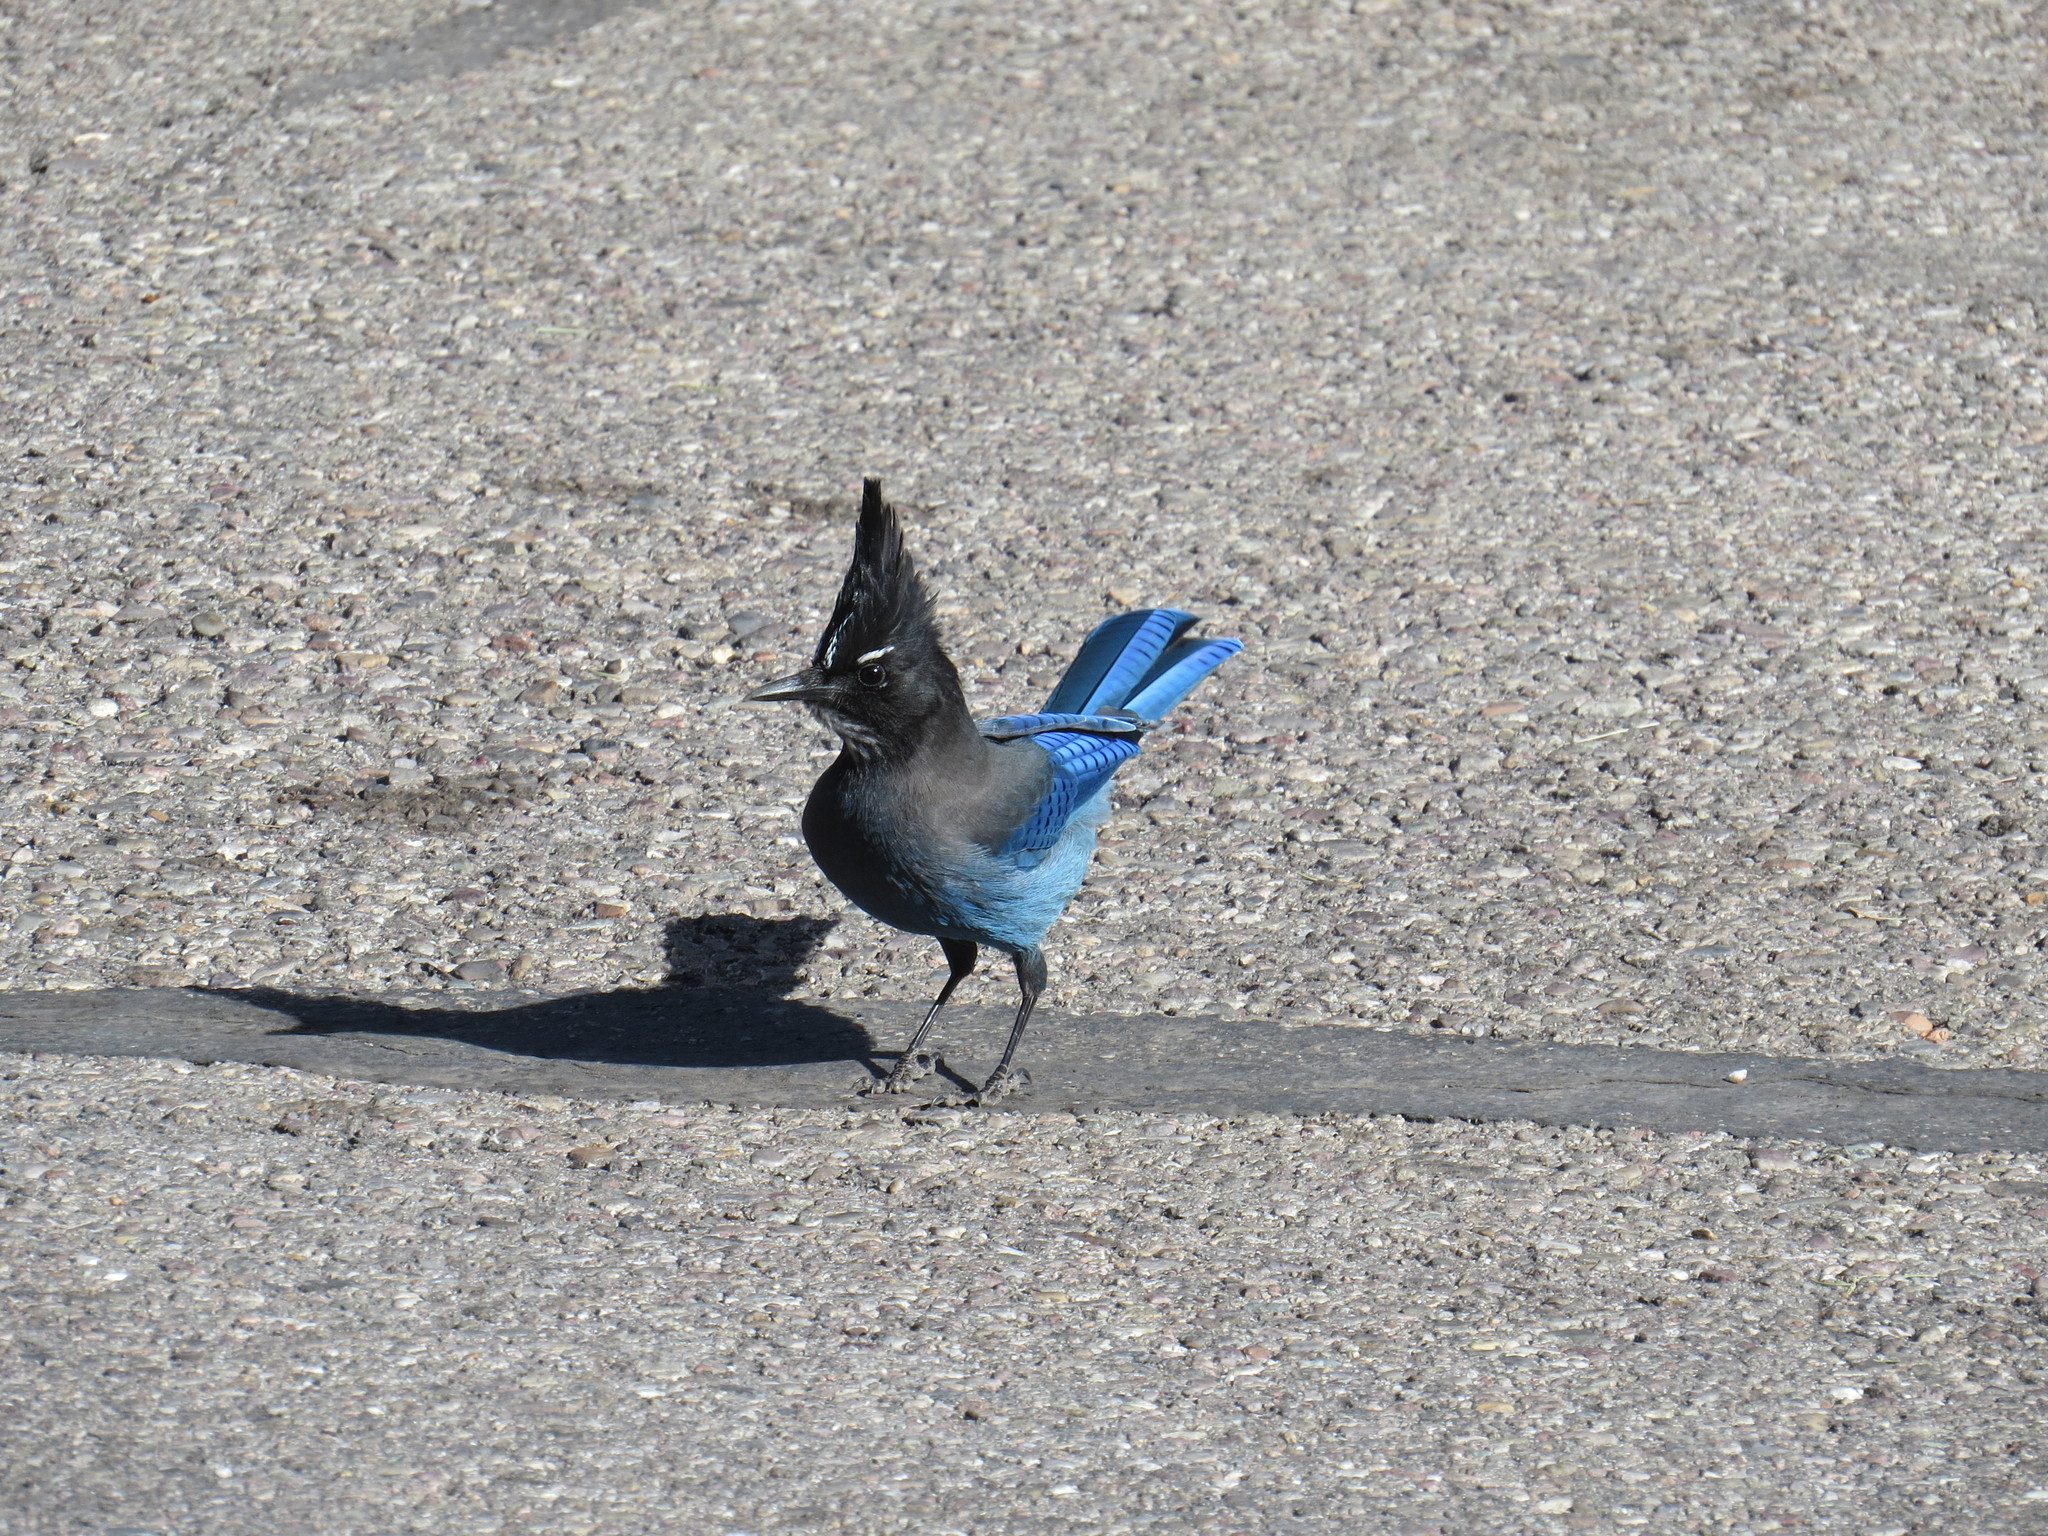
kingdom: Animalia
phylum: Chordata
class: Aves
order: Passeriformes
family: Corvidae
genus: Cyanocitta
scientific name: Cyanocitta stelleri
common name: Steller's jay
